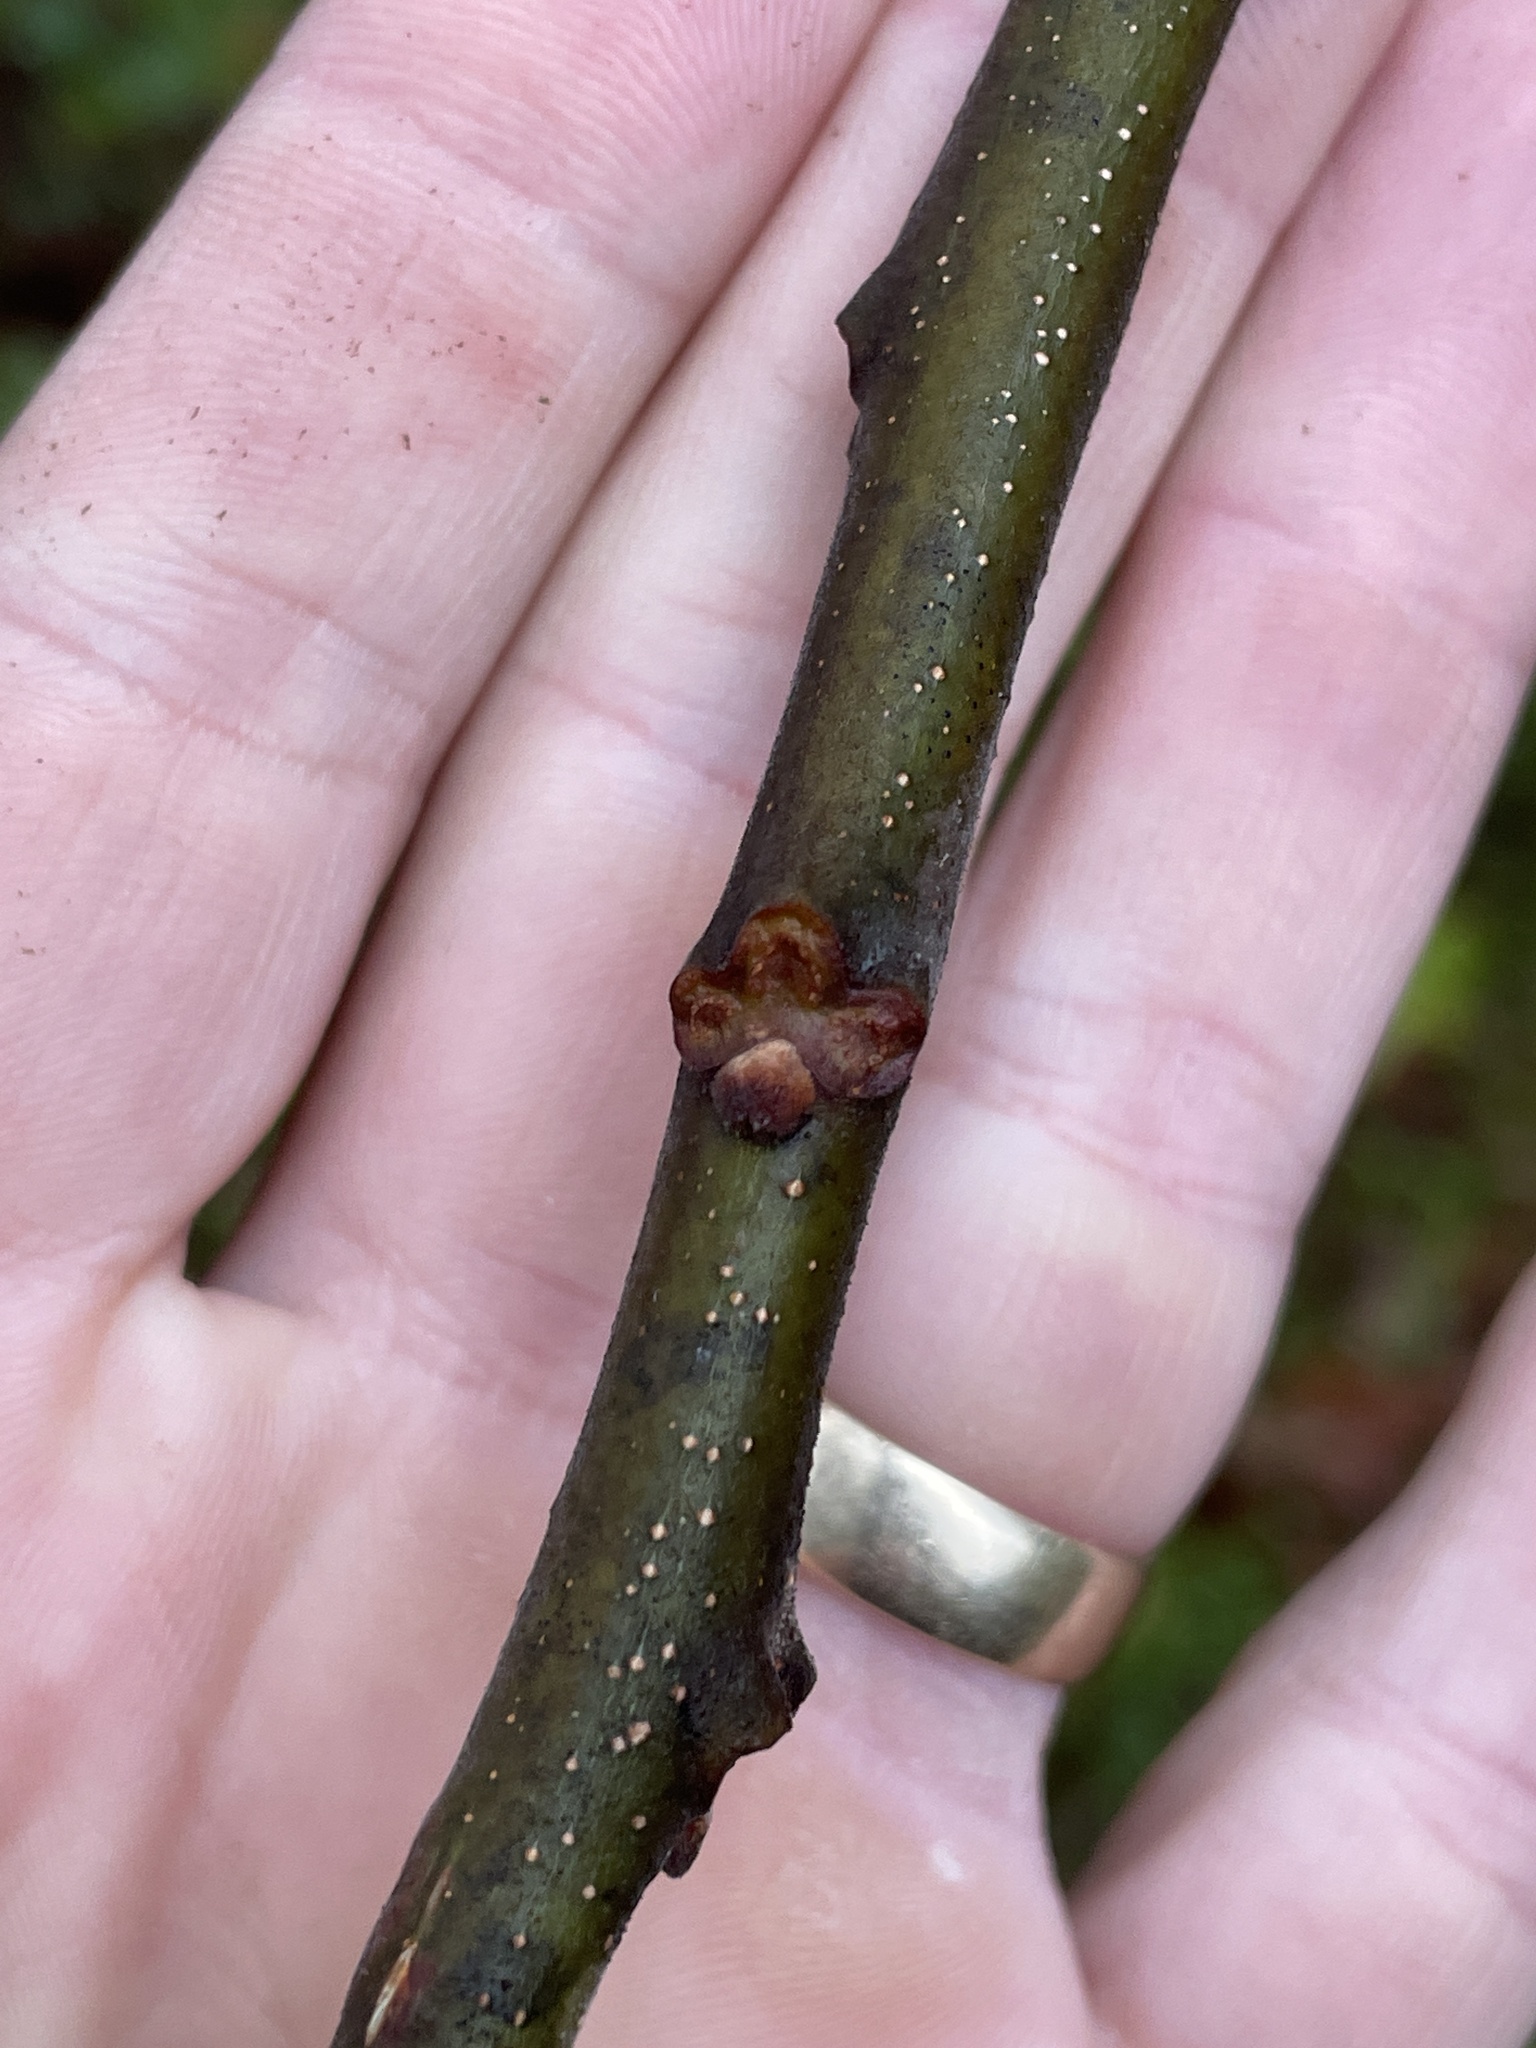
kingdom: Plantae
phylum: Tracheophyta
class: Magnoliopsida
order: Sapindales
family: Meliaceae
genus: Melia
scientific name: Melia azedarach
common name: Chinaberrytree
